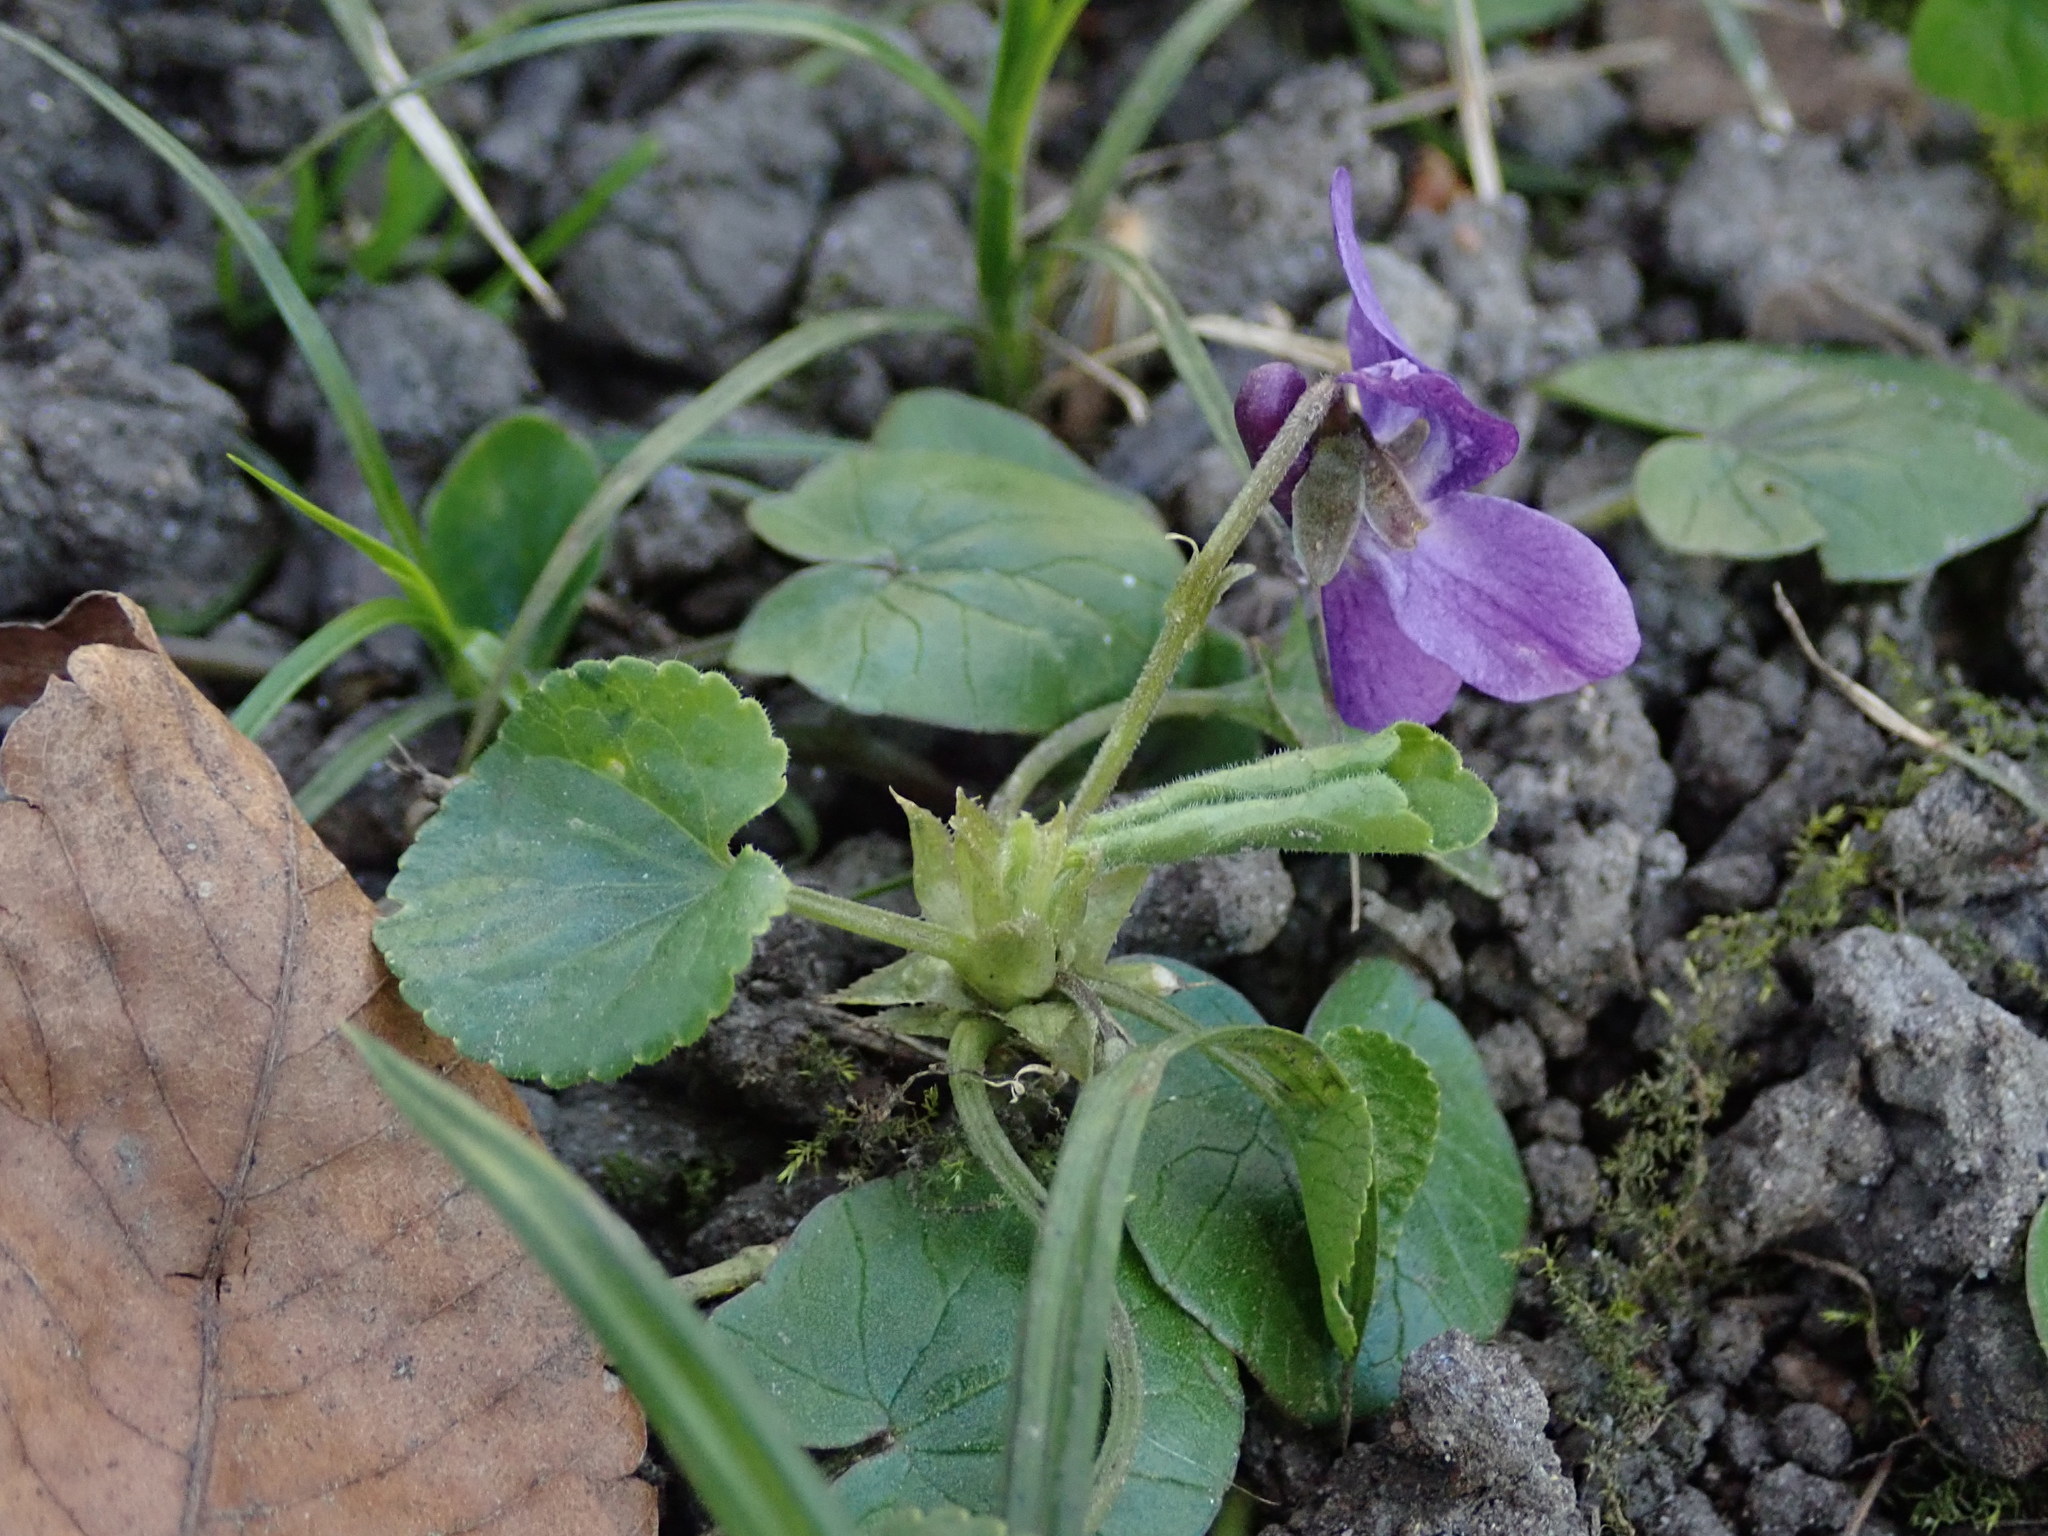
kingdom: Plantae
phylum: Tracheophyta
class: Magnoliopsida
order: Malpighiales
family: Violaceae
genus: Viola
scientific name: Viola odorata
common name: Sweet violet
